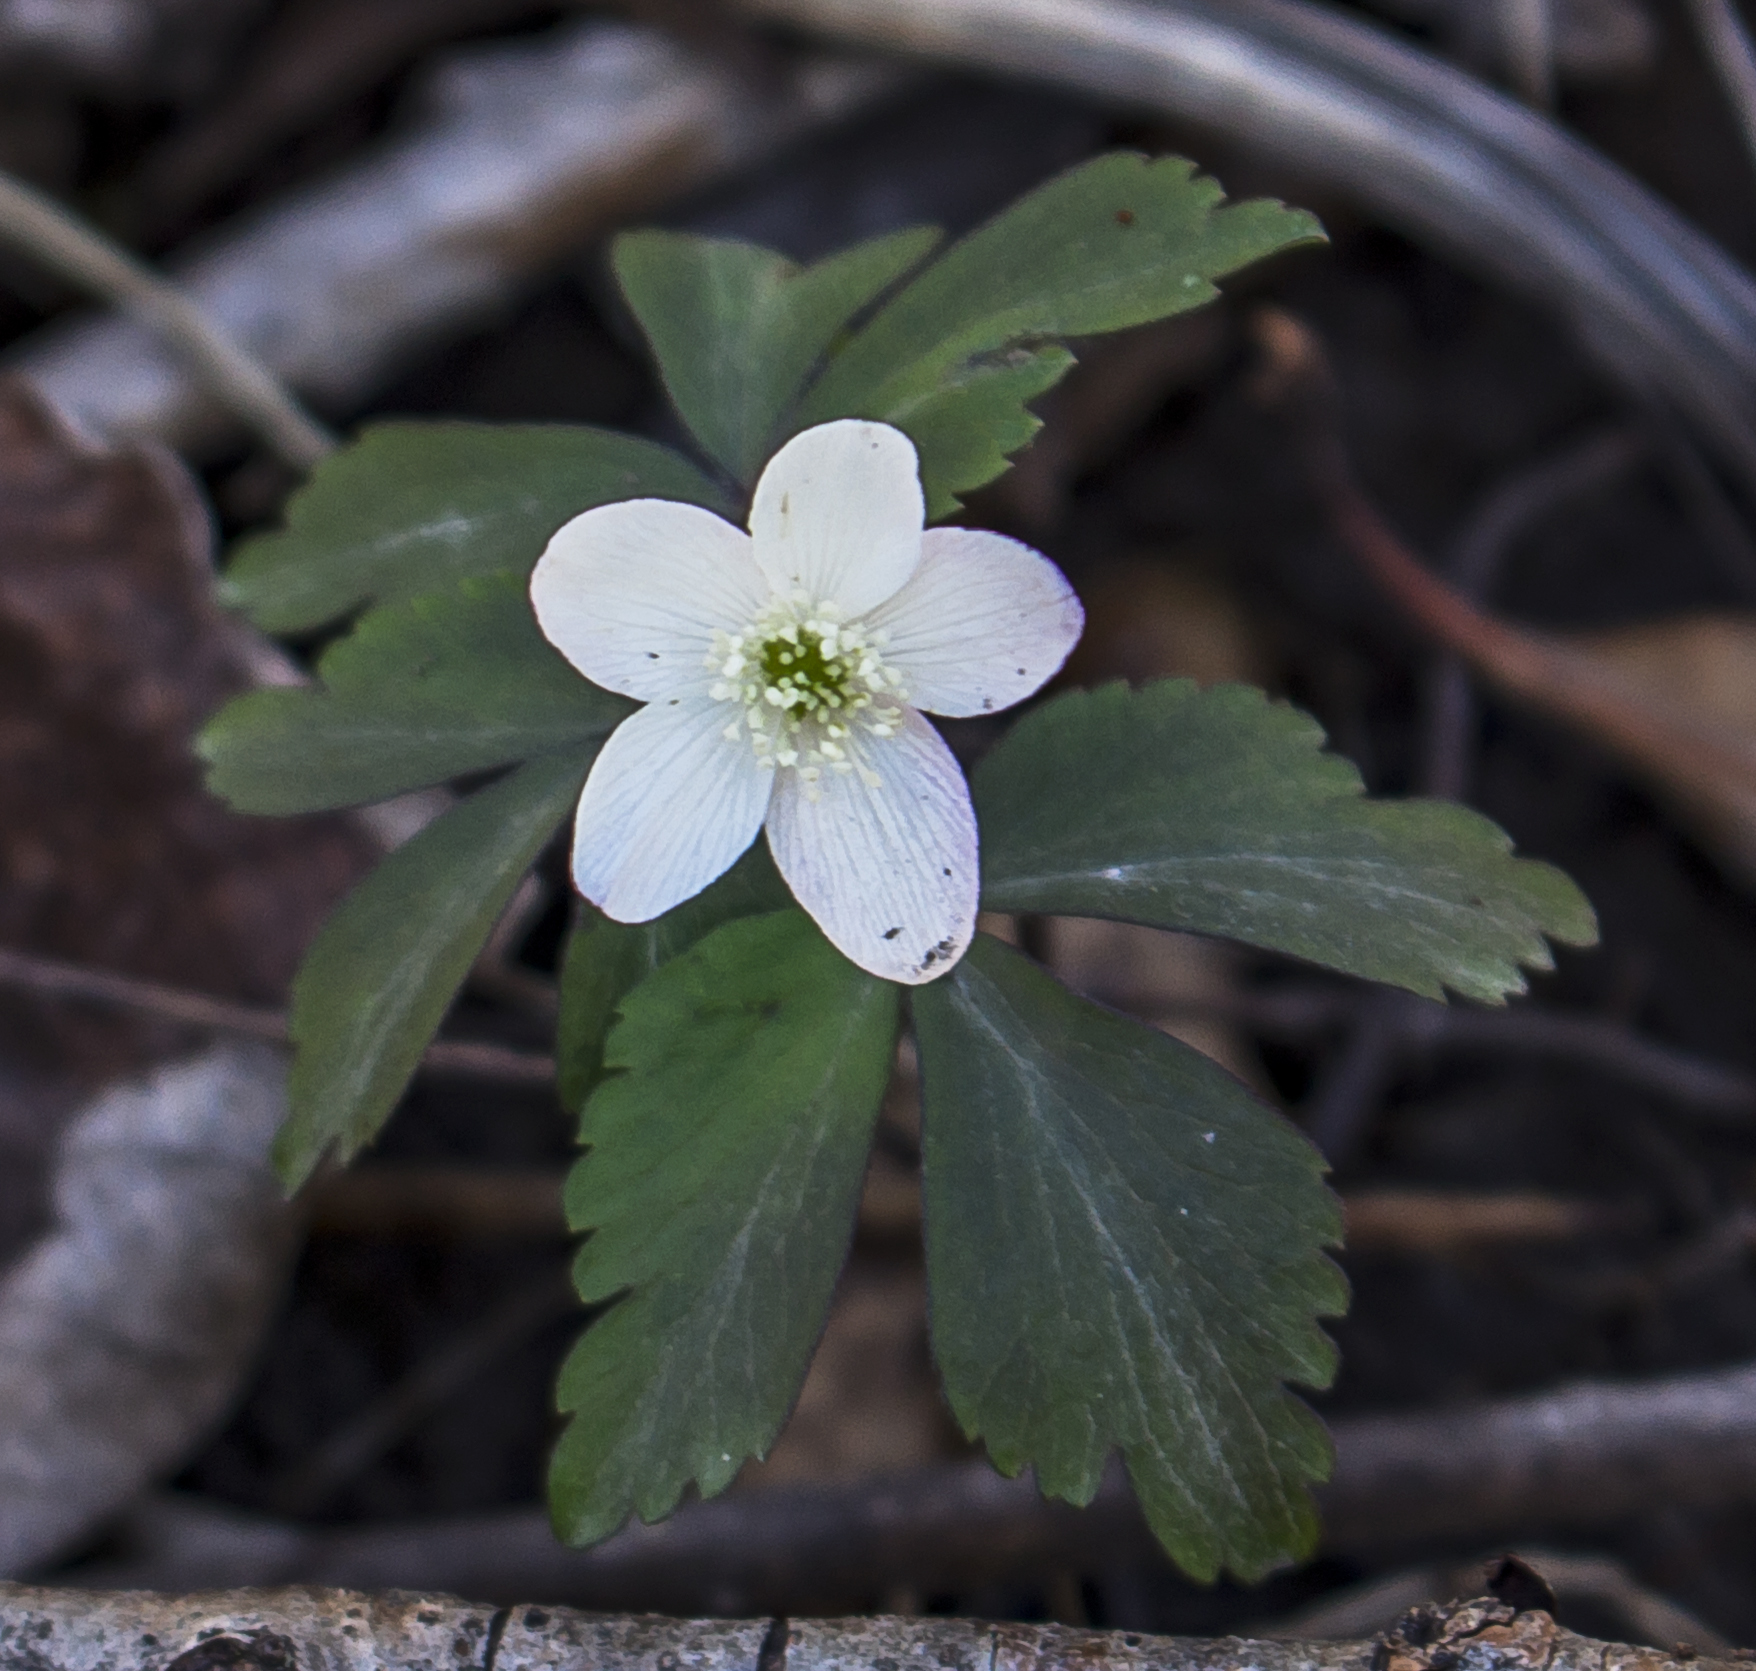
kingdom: Plantae
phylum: Tracheophyta
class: Magnoliopsida
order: Ranunculales
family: Ranunculaceae
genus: Anemone
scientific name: Anemone quinquefolia
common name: Wood anemone
